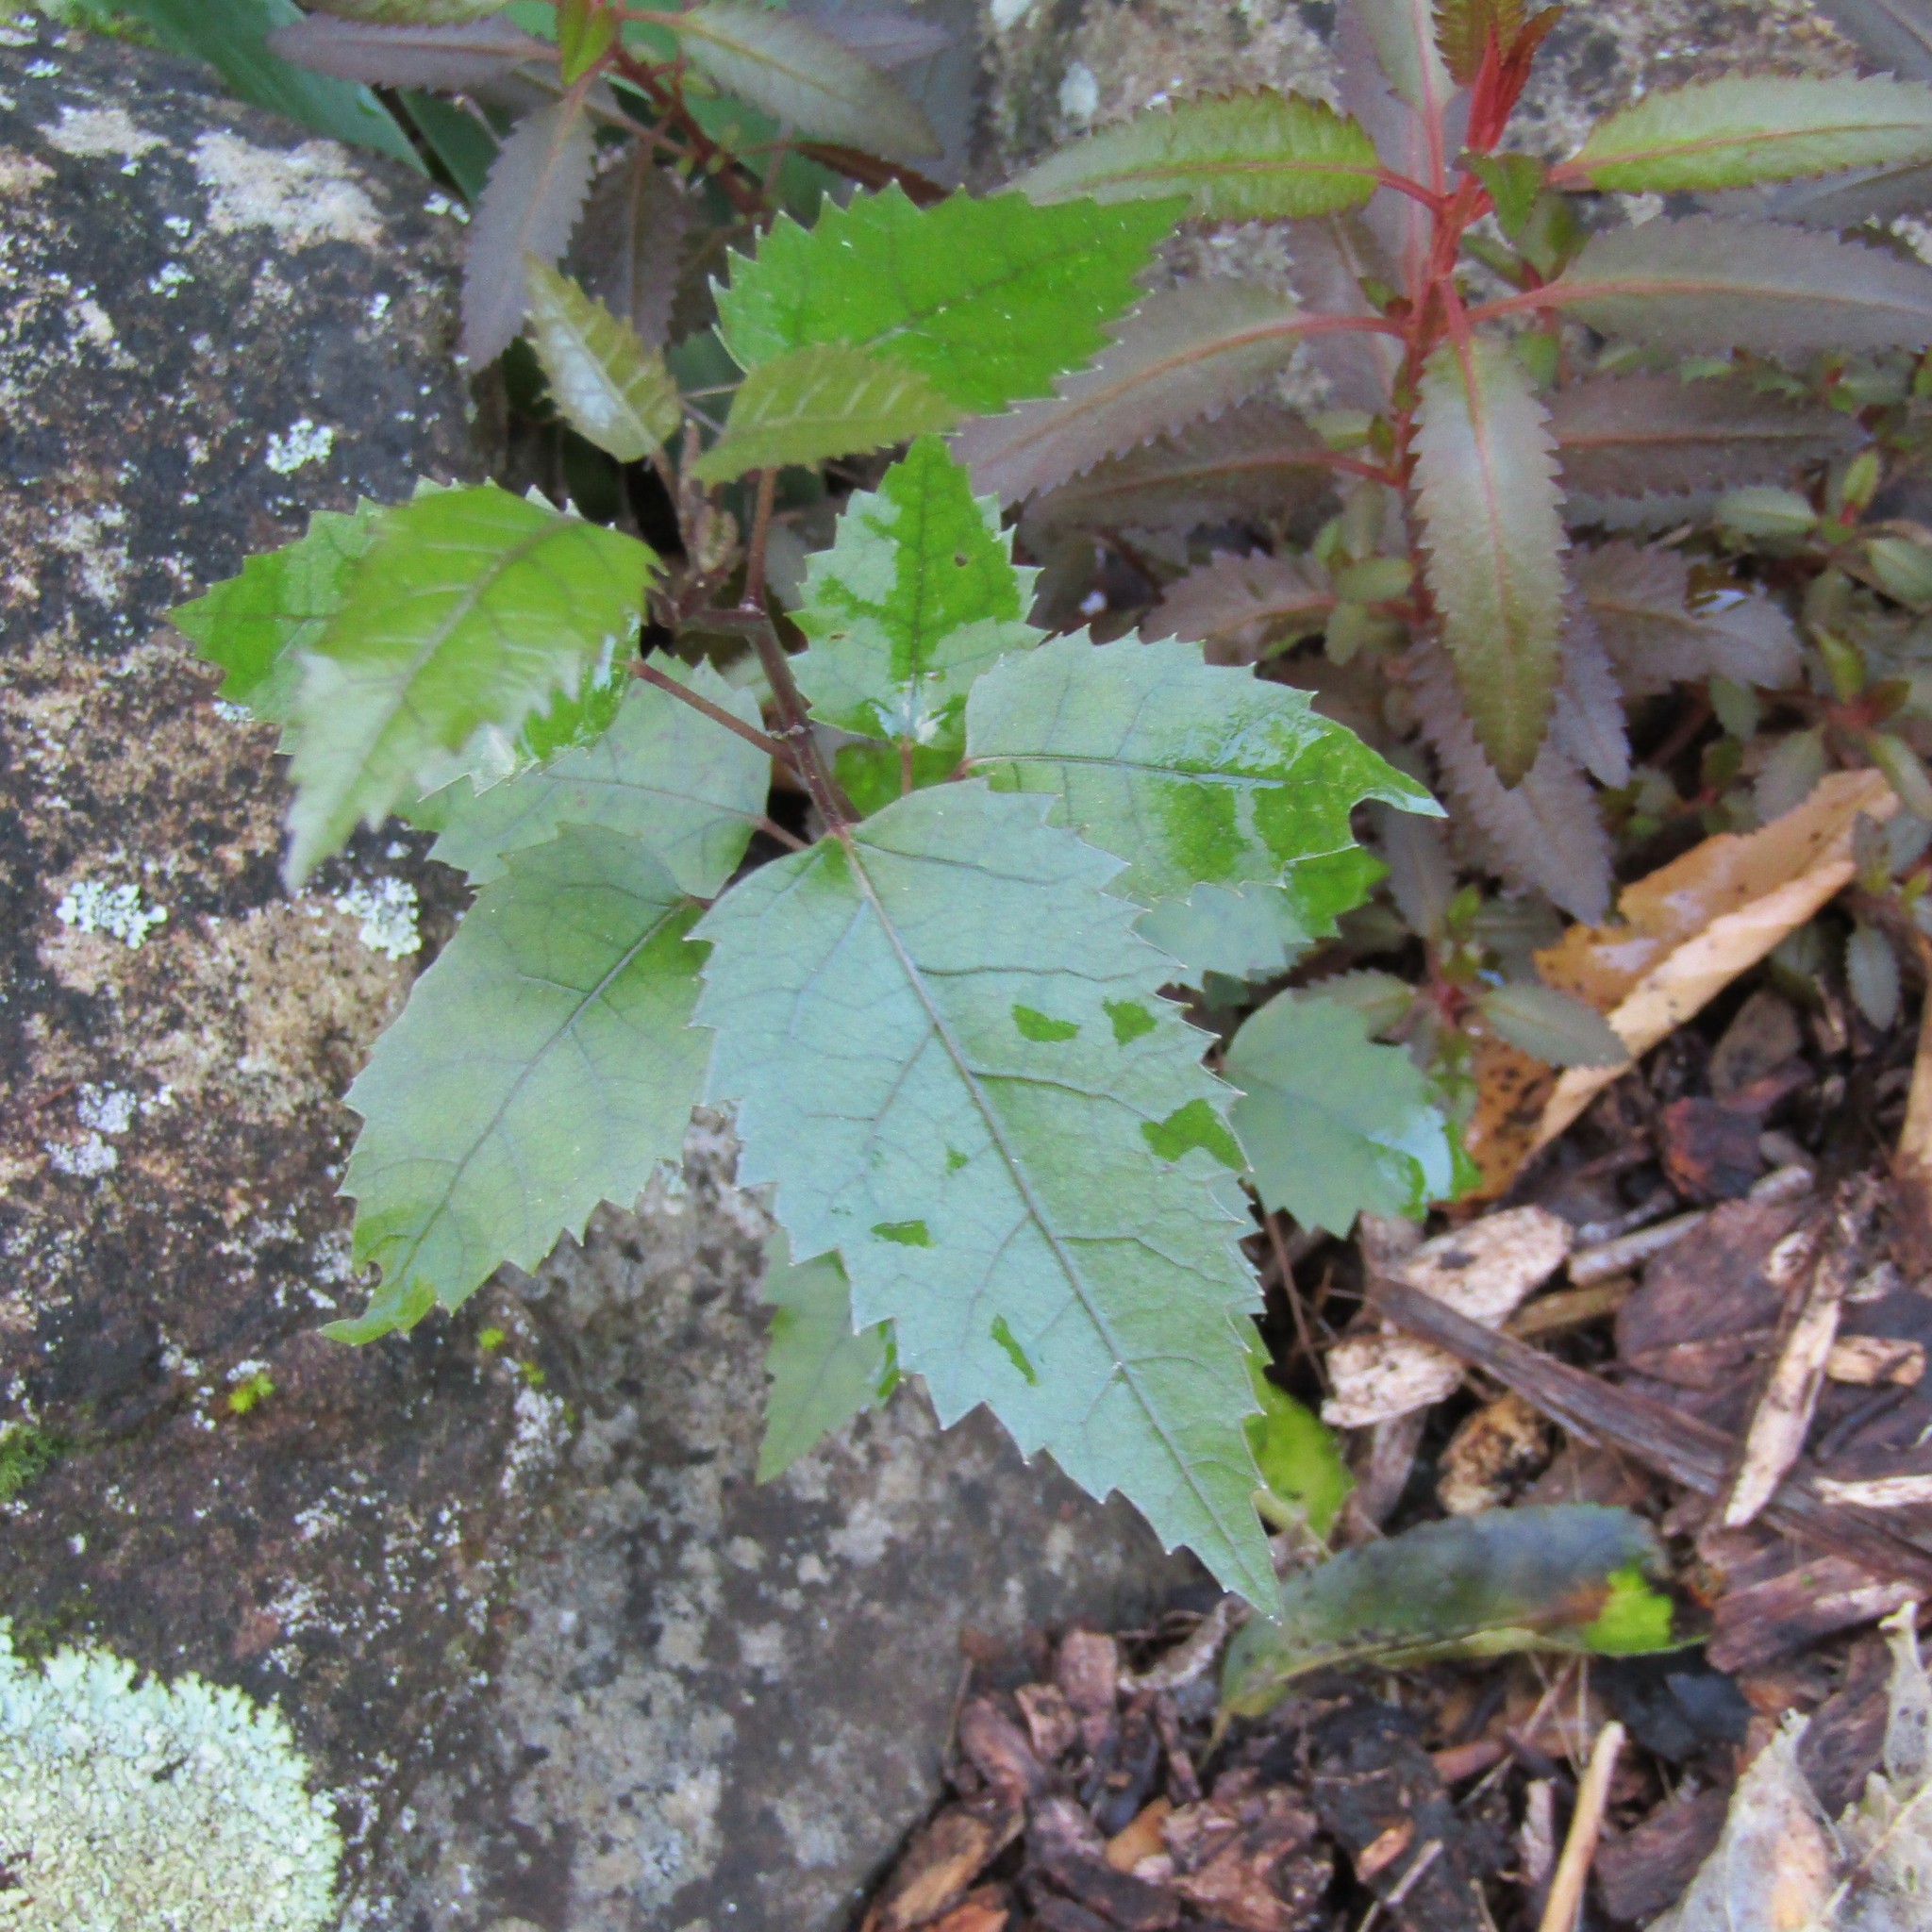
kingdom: Plantae
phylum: Tracheophyta
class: Magnoliopsida
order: Malvales
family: Malvaceae
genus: Hoheria
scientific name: Hoheria populnea
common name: Lacebark
